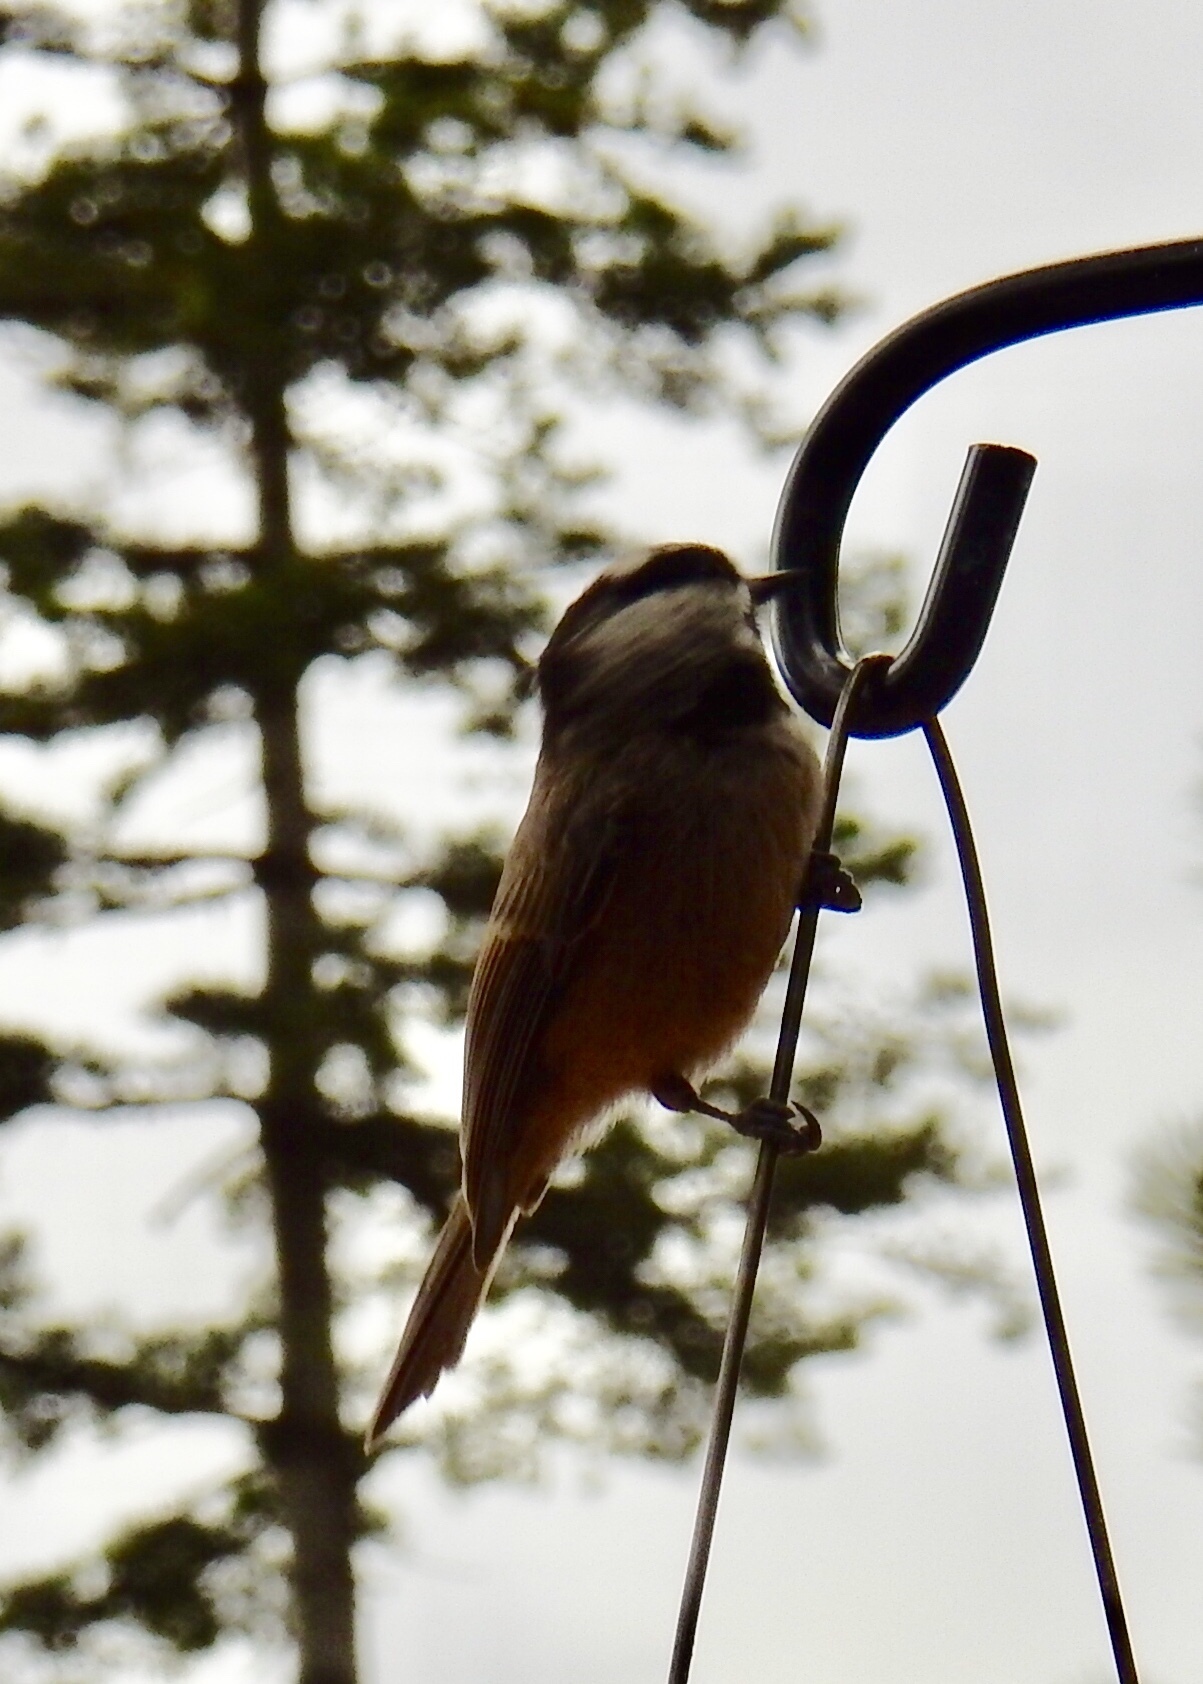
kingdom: Animalia
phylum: Chordata
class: Aves
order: Passeriformes
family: Paridae
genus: Poecile
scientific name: Poecile gambeli
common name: Mountain chickadee
